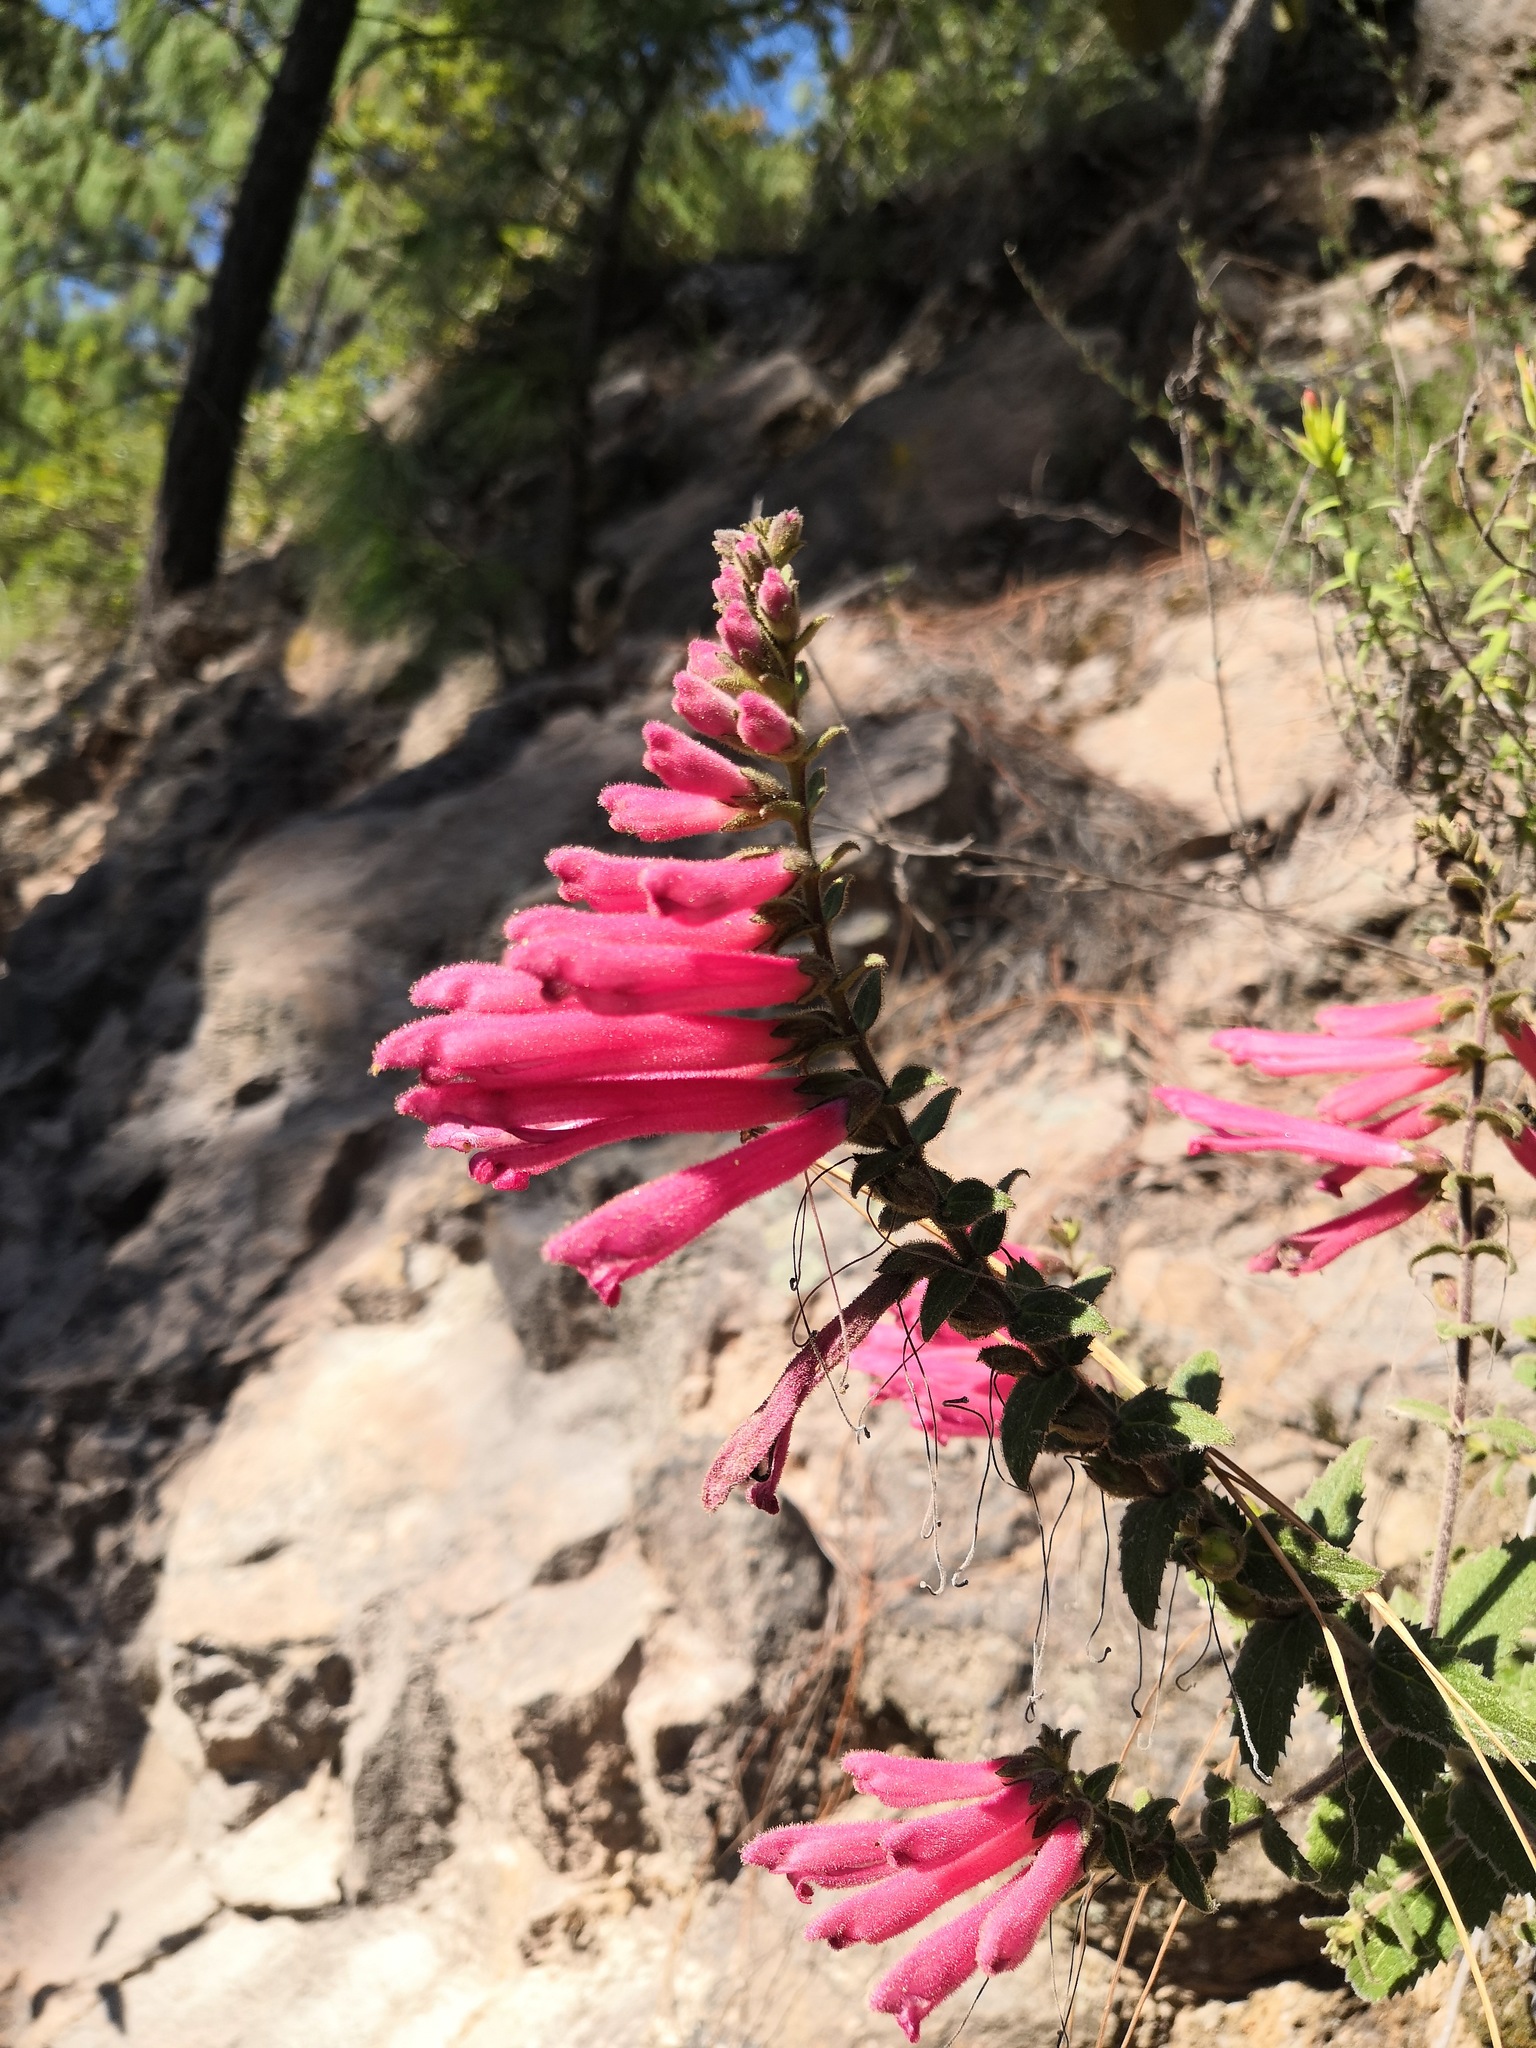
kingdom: Plantae
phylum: Tracheophyta
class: Magnoliopsida
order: Lamiales
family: Orobanchaceae
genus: Lamourouxia
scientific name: Lamourouxia viscosa
